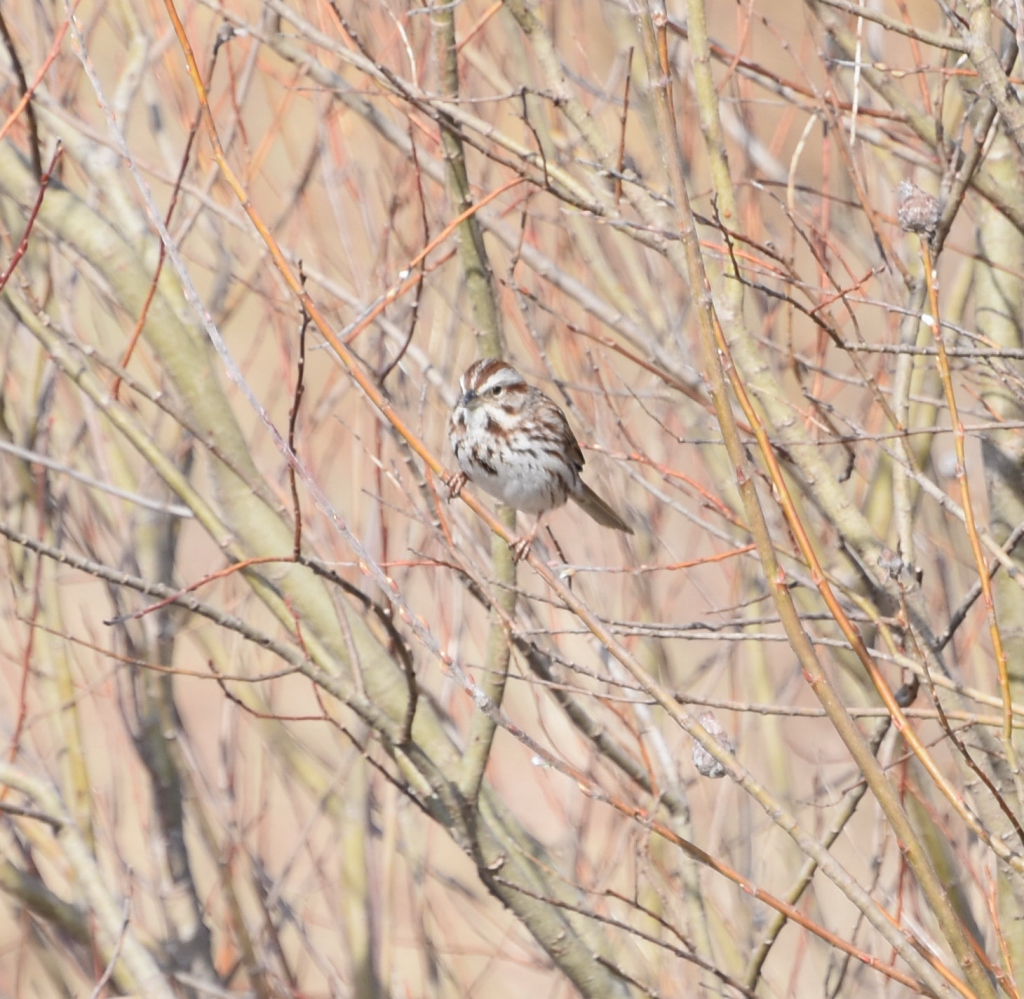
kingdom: Animalia
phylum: Chordata
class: Aves
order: Passeriformes
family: Passerellidae
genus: Melospiza
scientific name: Melospiza melodia
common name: Song sparrow
